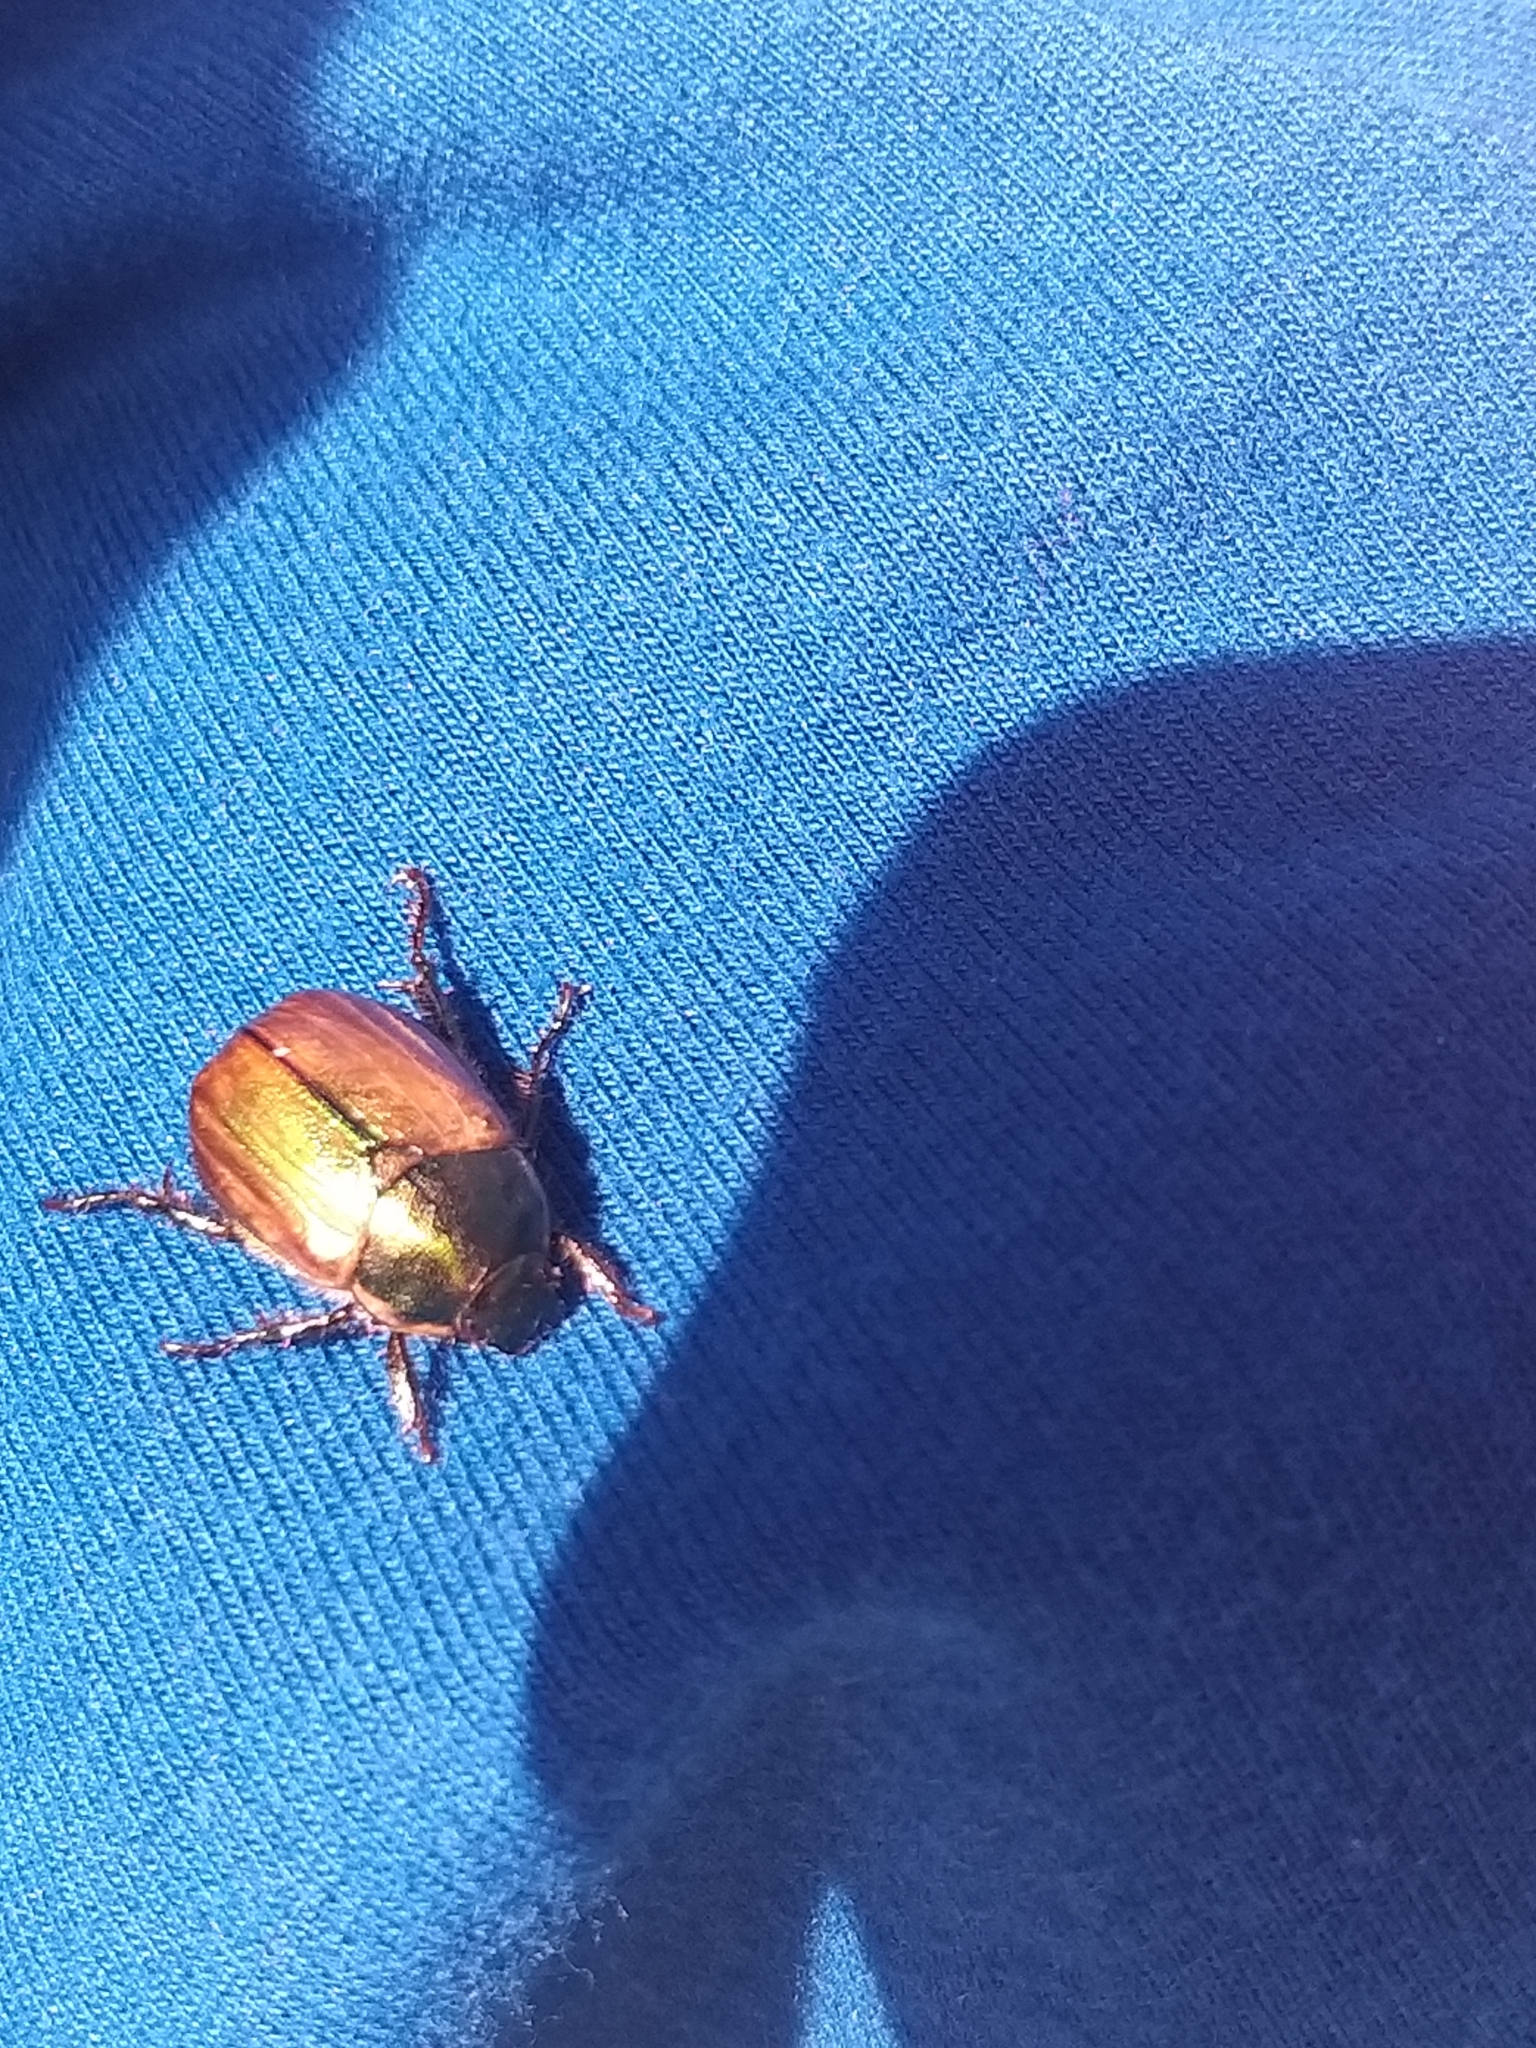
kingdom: Animalia
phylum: Arthropoda
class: Insecta
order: Coleoptera
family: Scarabaeidae
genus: Anomala
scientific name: Anomala dubia
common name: Dune chafer
